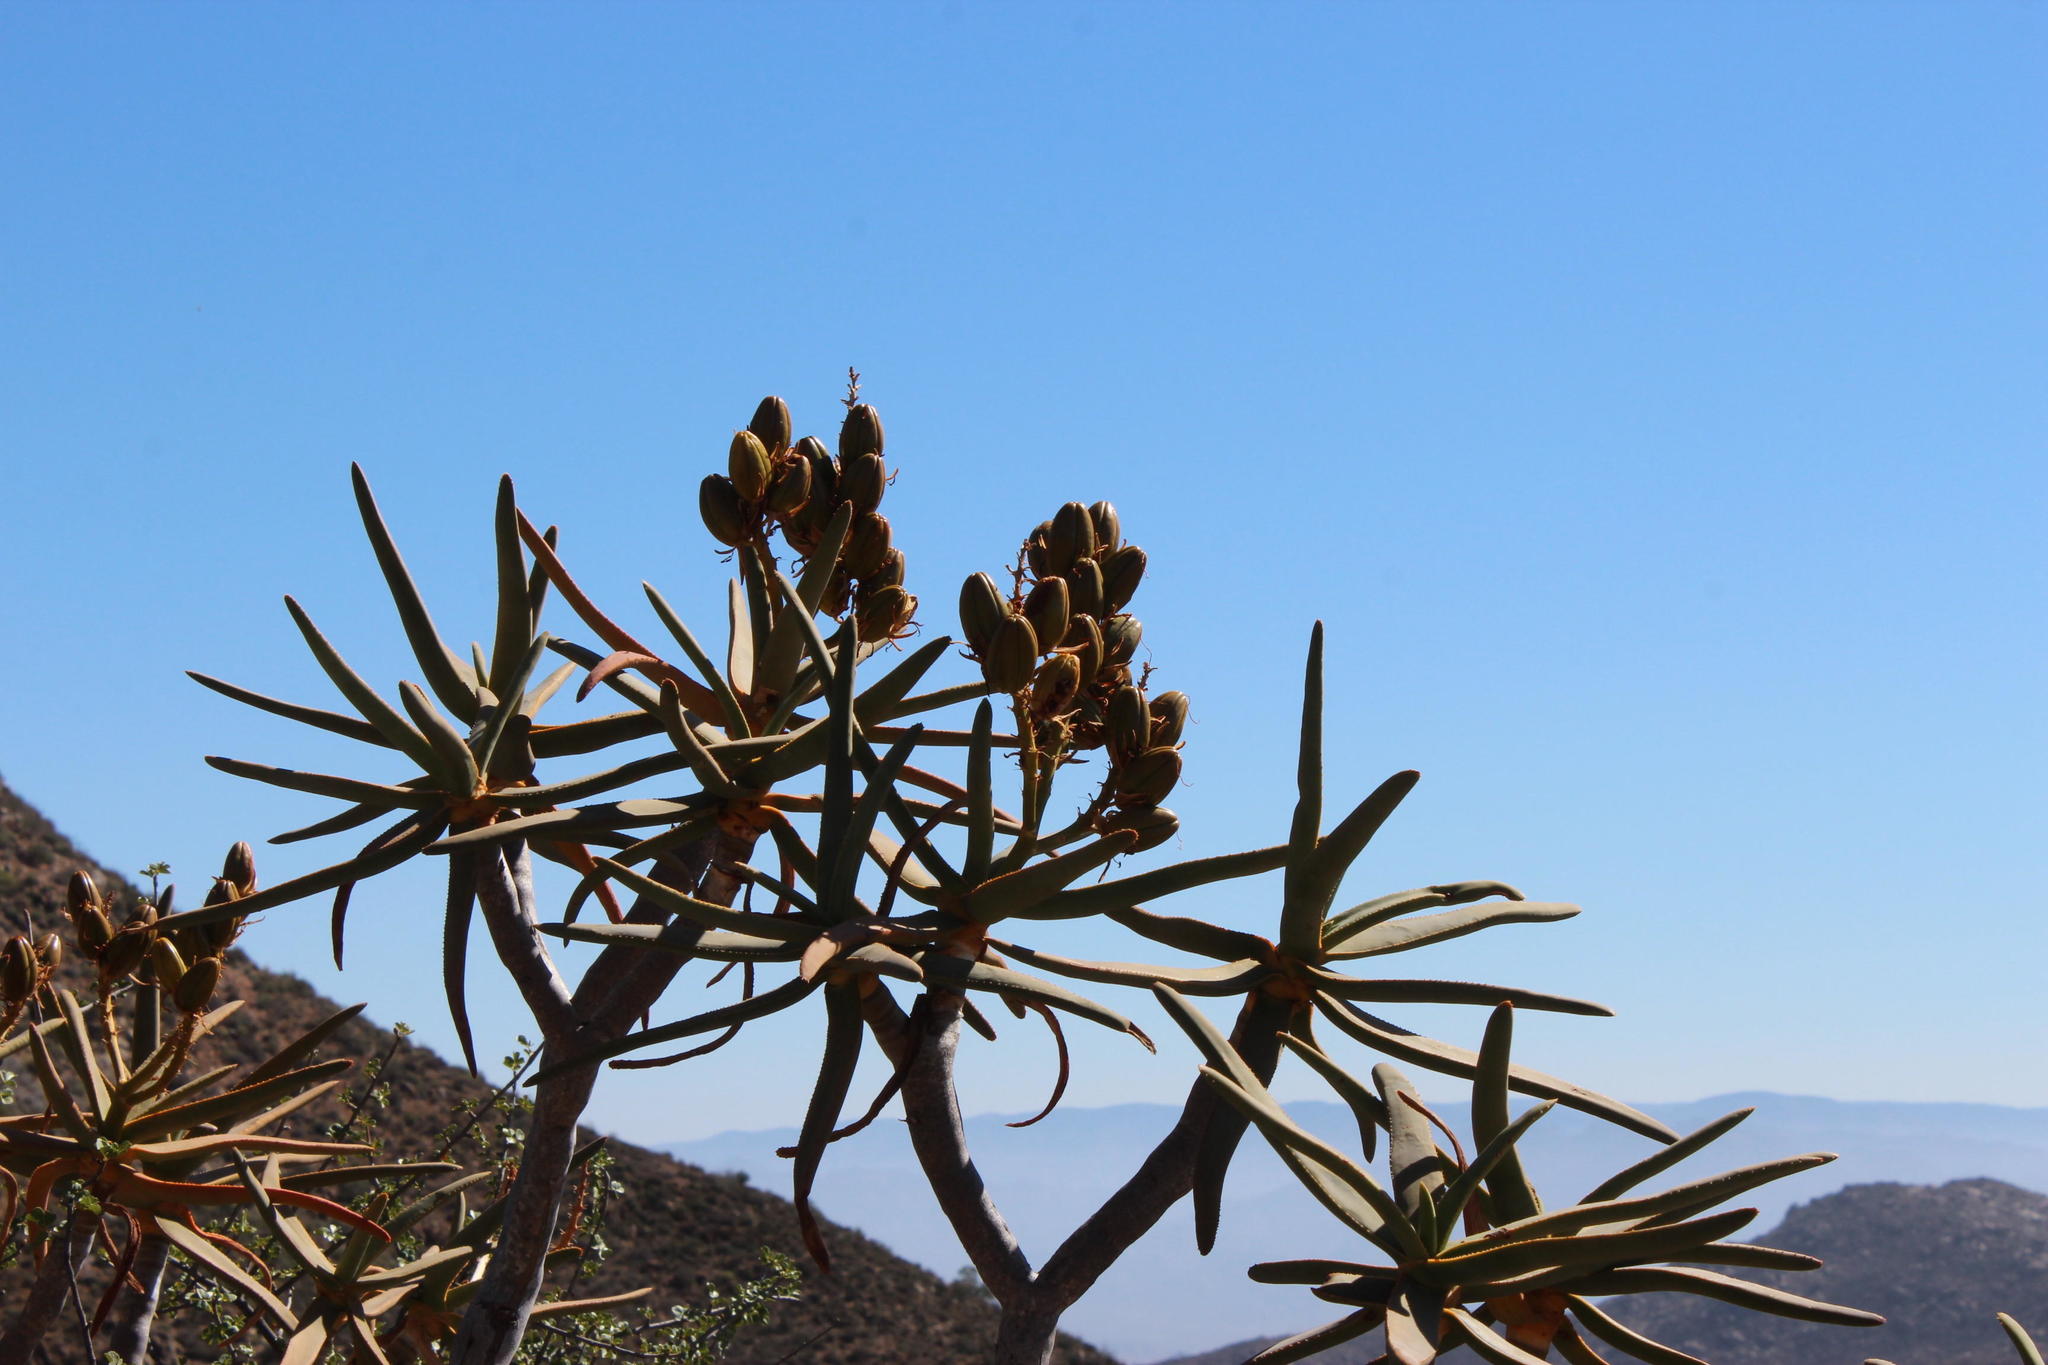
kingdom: Plantae
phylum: Tracheophyta
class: Liliopsida
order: Asparagales
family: Asphodelaceae
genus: Aloidendron
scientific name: Aloidendron ramosissimum
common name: Bush quiver tree
